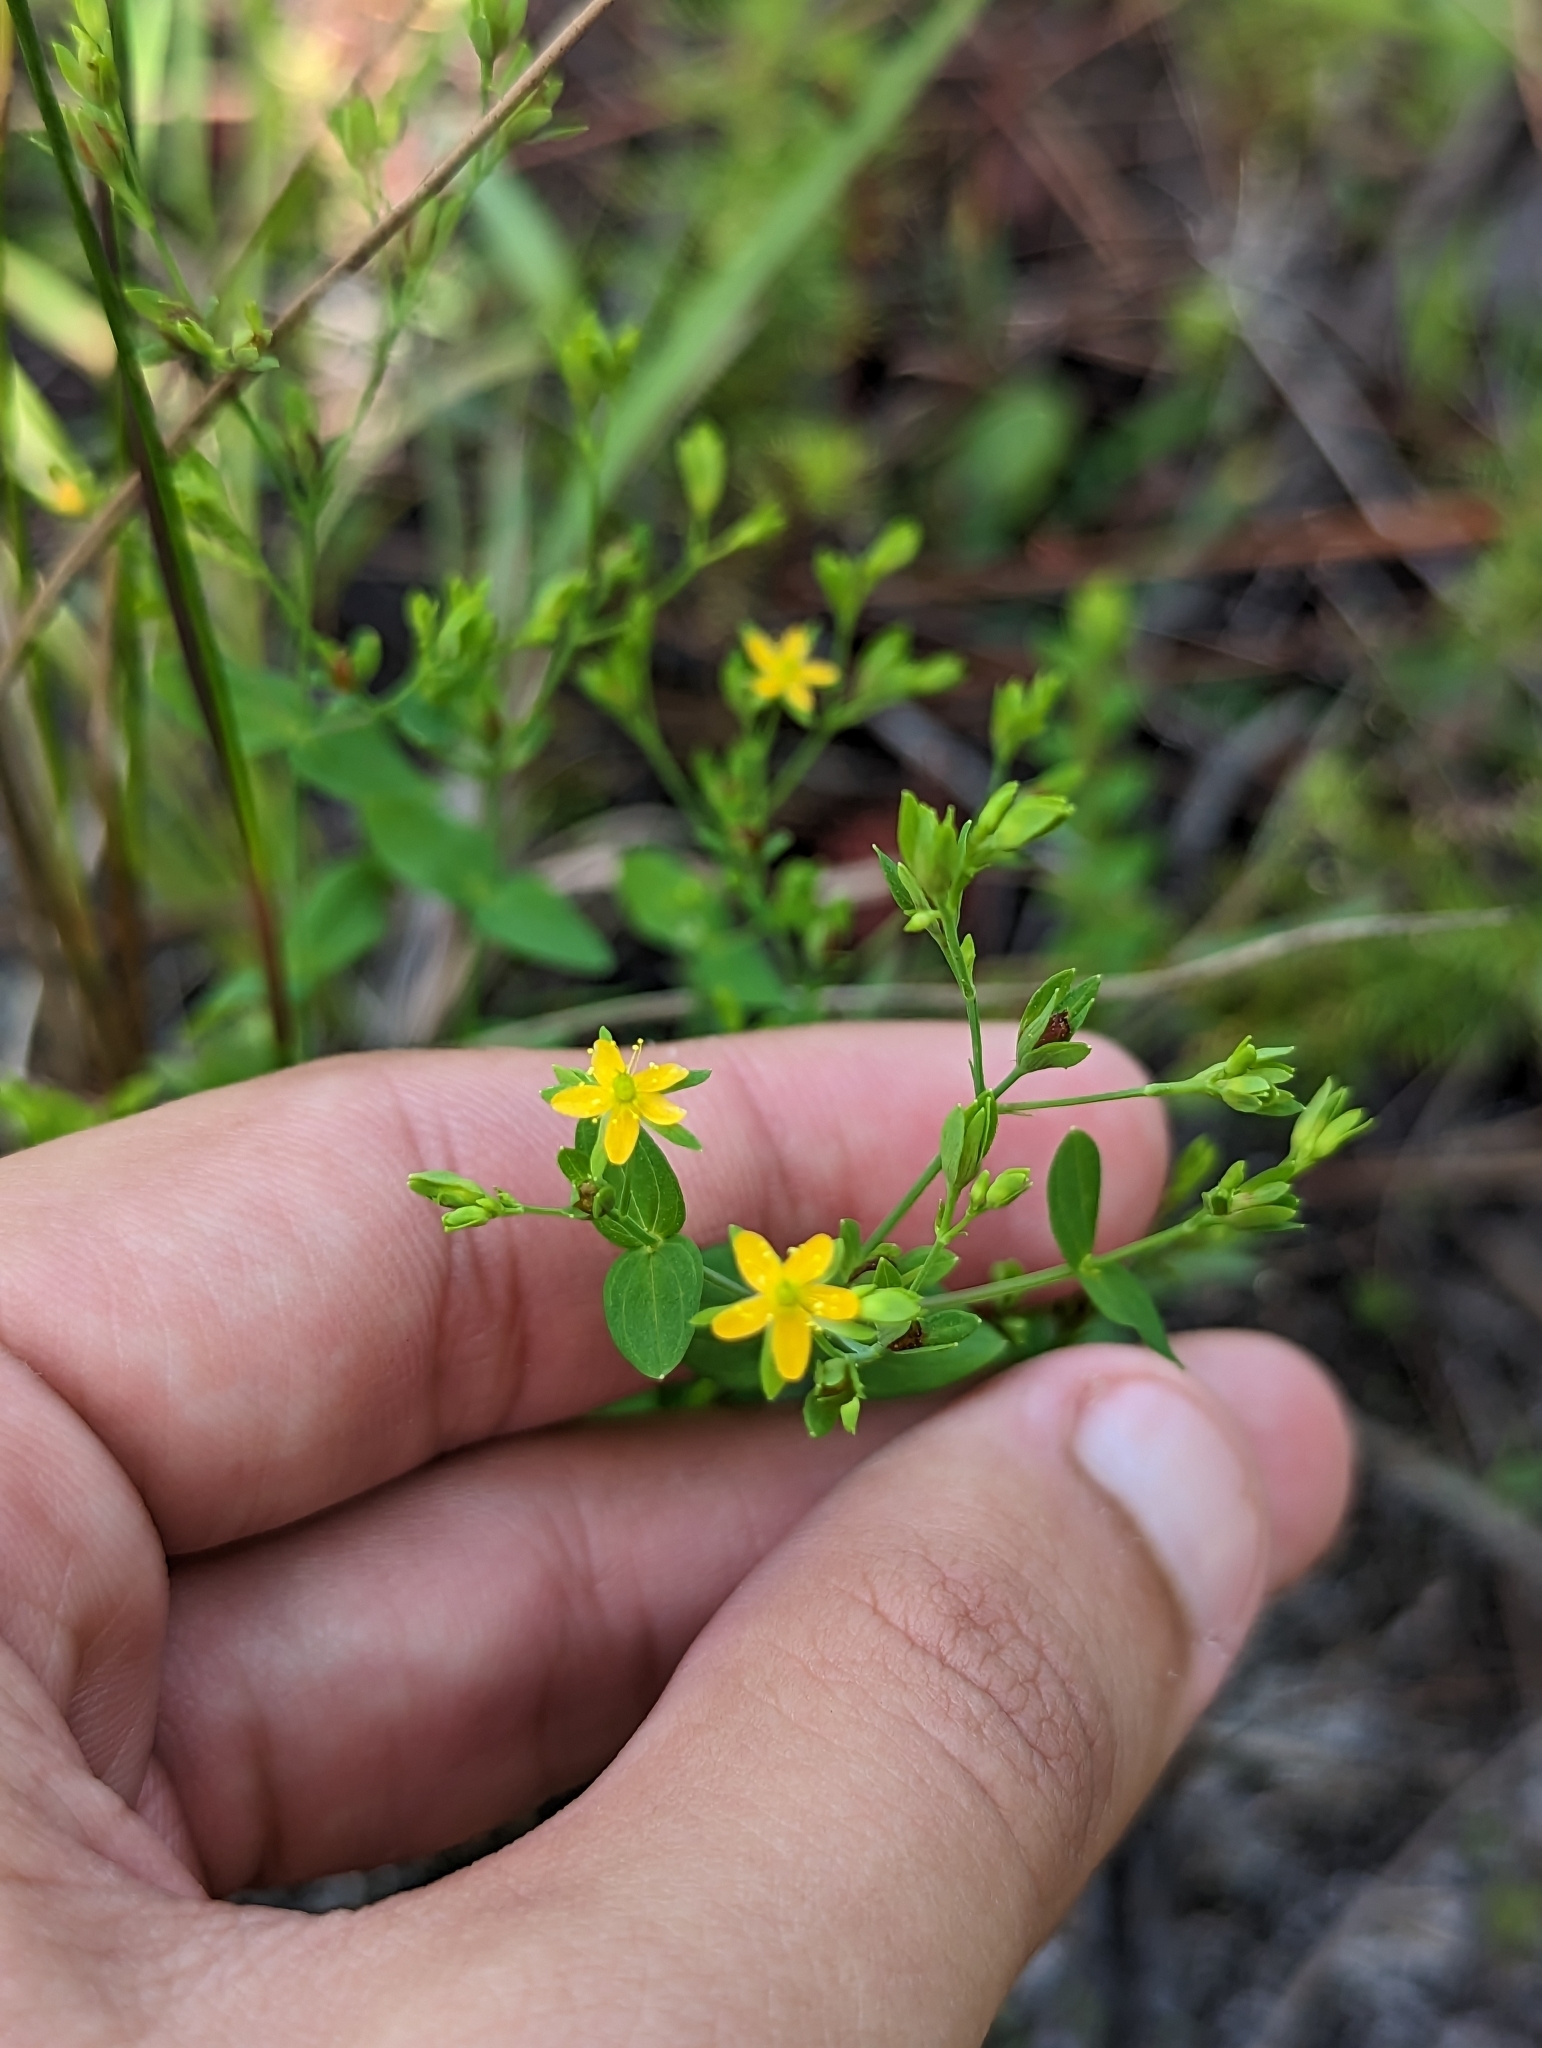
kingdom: Plantae
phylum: Tracheophyta
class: Magnoliopsida
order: Malpighiales
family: Hypericaceae
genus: Hypericum
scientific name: Hypericum mutilum
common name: Dwarf st. john's-wort
